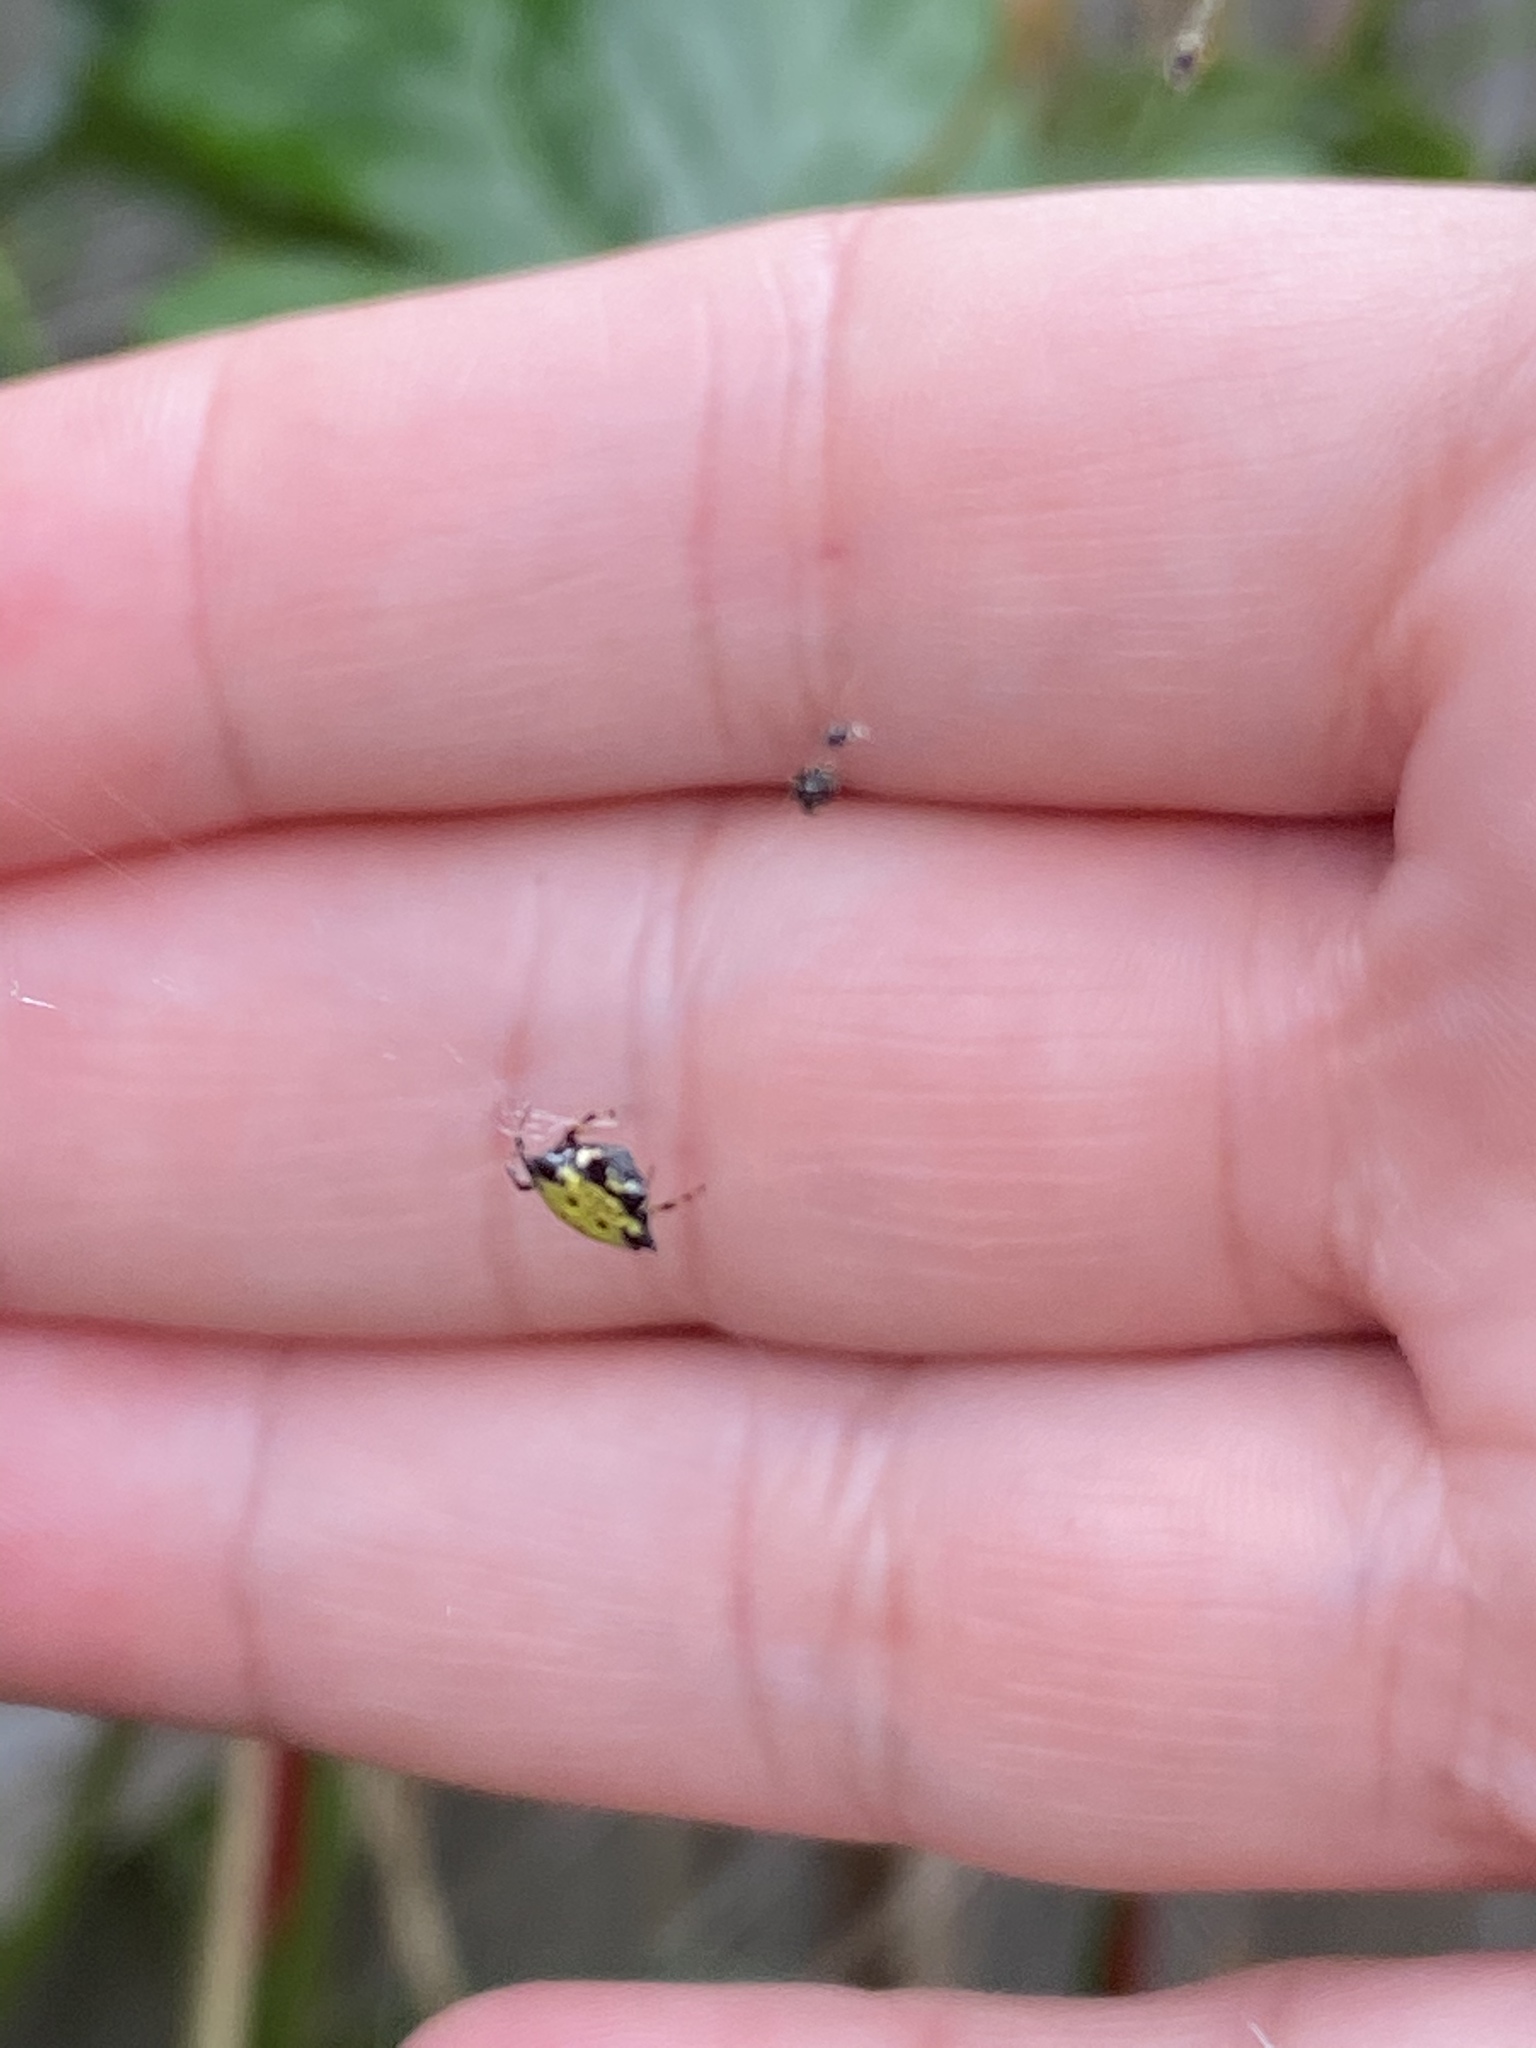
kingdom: Animalia
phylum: Arthropoda
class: Arachnida
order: Araneae
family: Araneidae
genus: Gasteracantha
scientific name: Gasteracantha cancriformis
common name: Orb weavers
